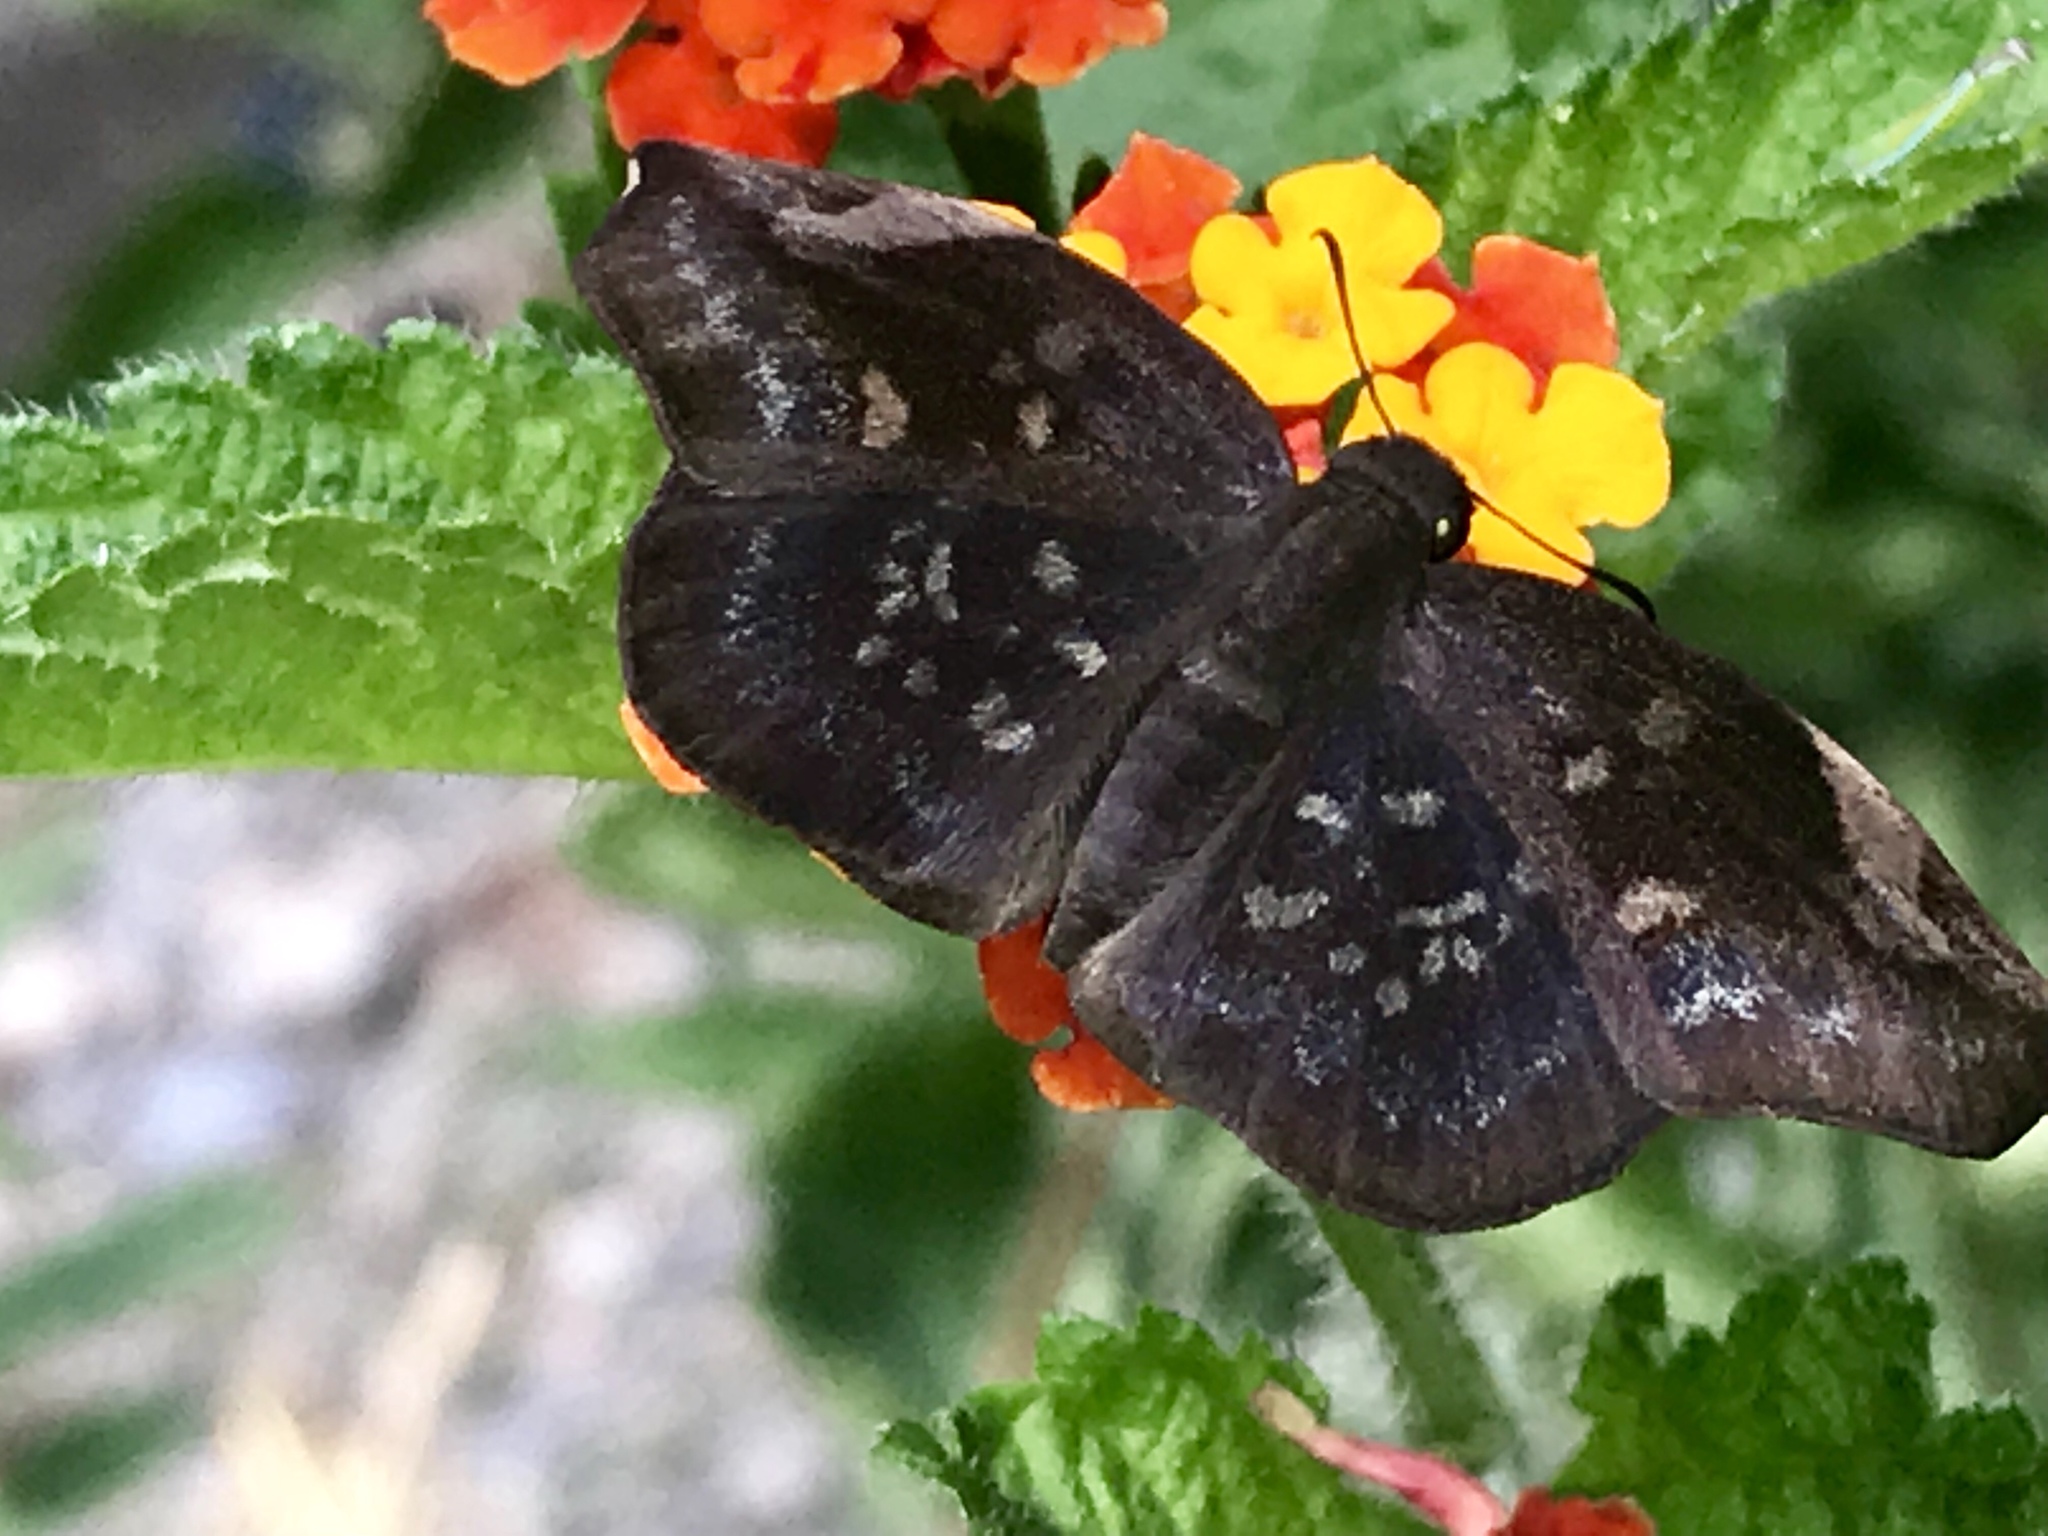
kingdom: Animalia
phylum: Arthropoda
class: Insecta
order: Lepidoptera
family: Hesperiidae
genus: Achlyodes
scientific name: Achlyodes thraso
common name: Sickle-winged skipper
